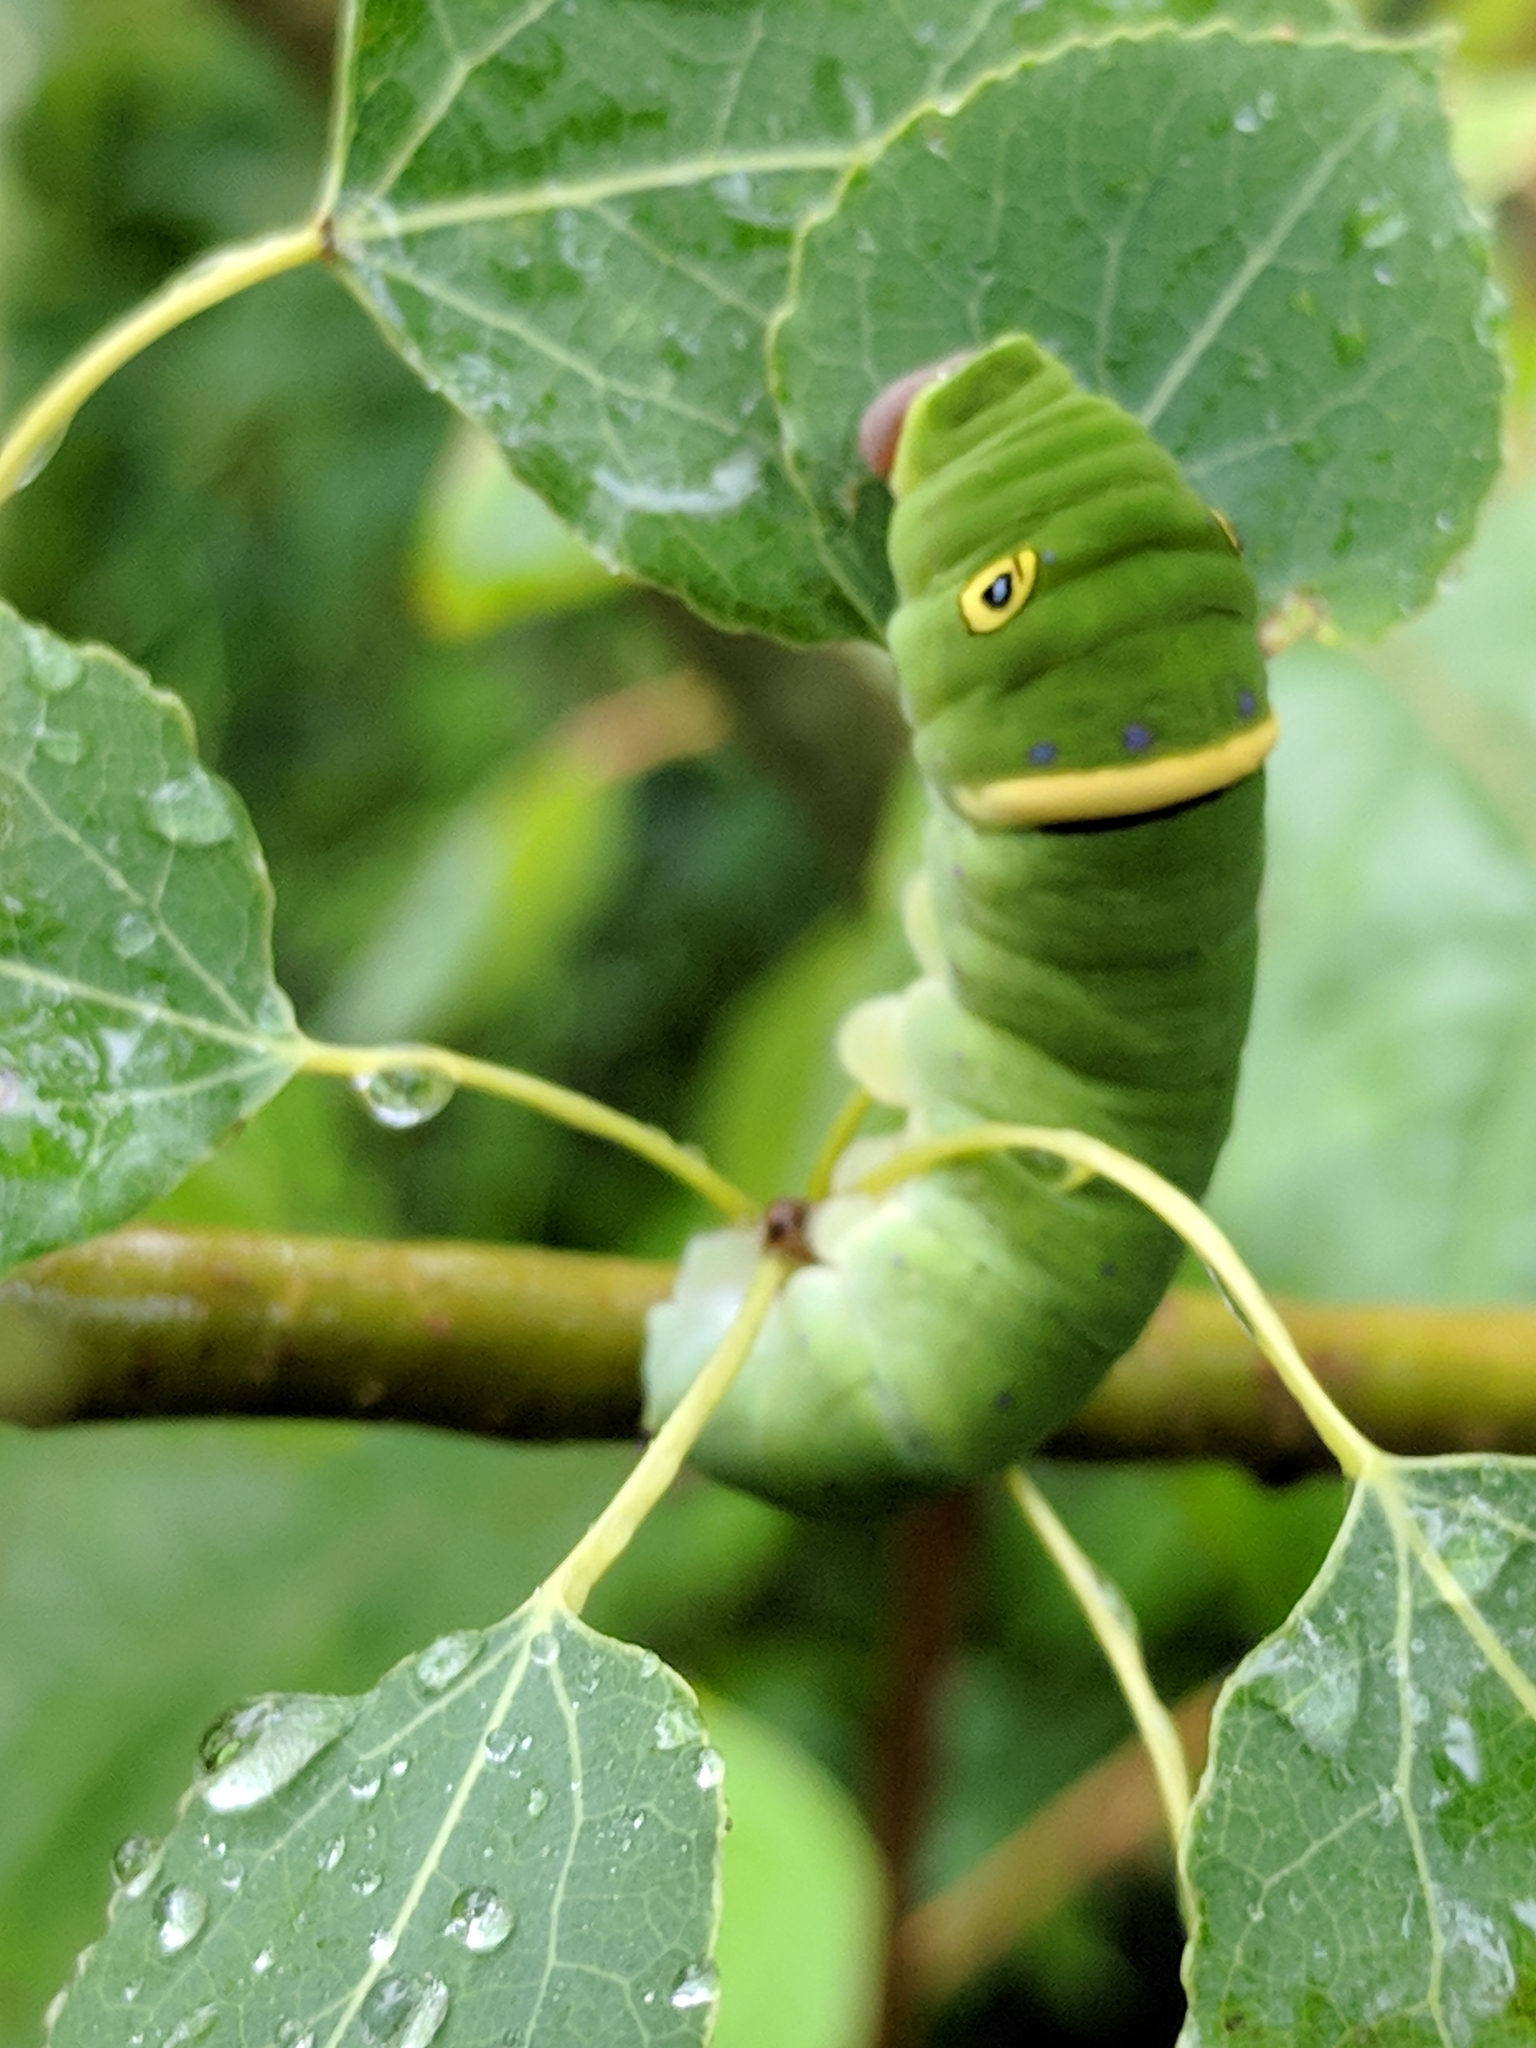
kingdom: Animalia
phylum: Arthropoda
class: Insecta
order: Lepidoptera
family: Papilionidae
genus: Papilio
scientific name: Papilio glaucus
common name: Tiger swallowtail
